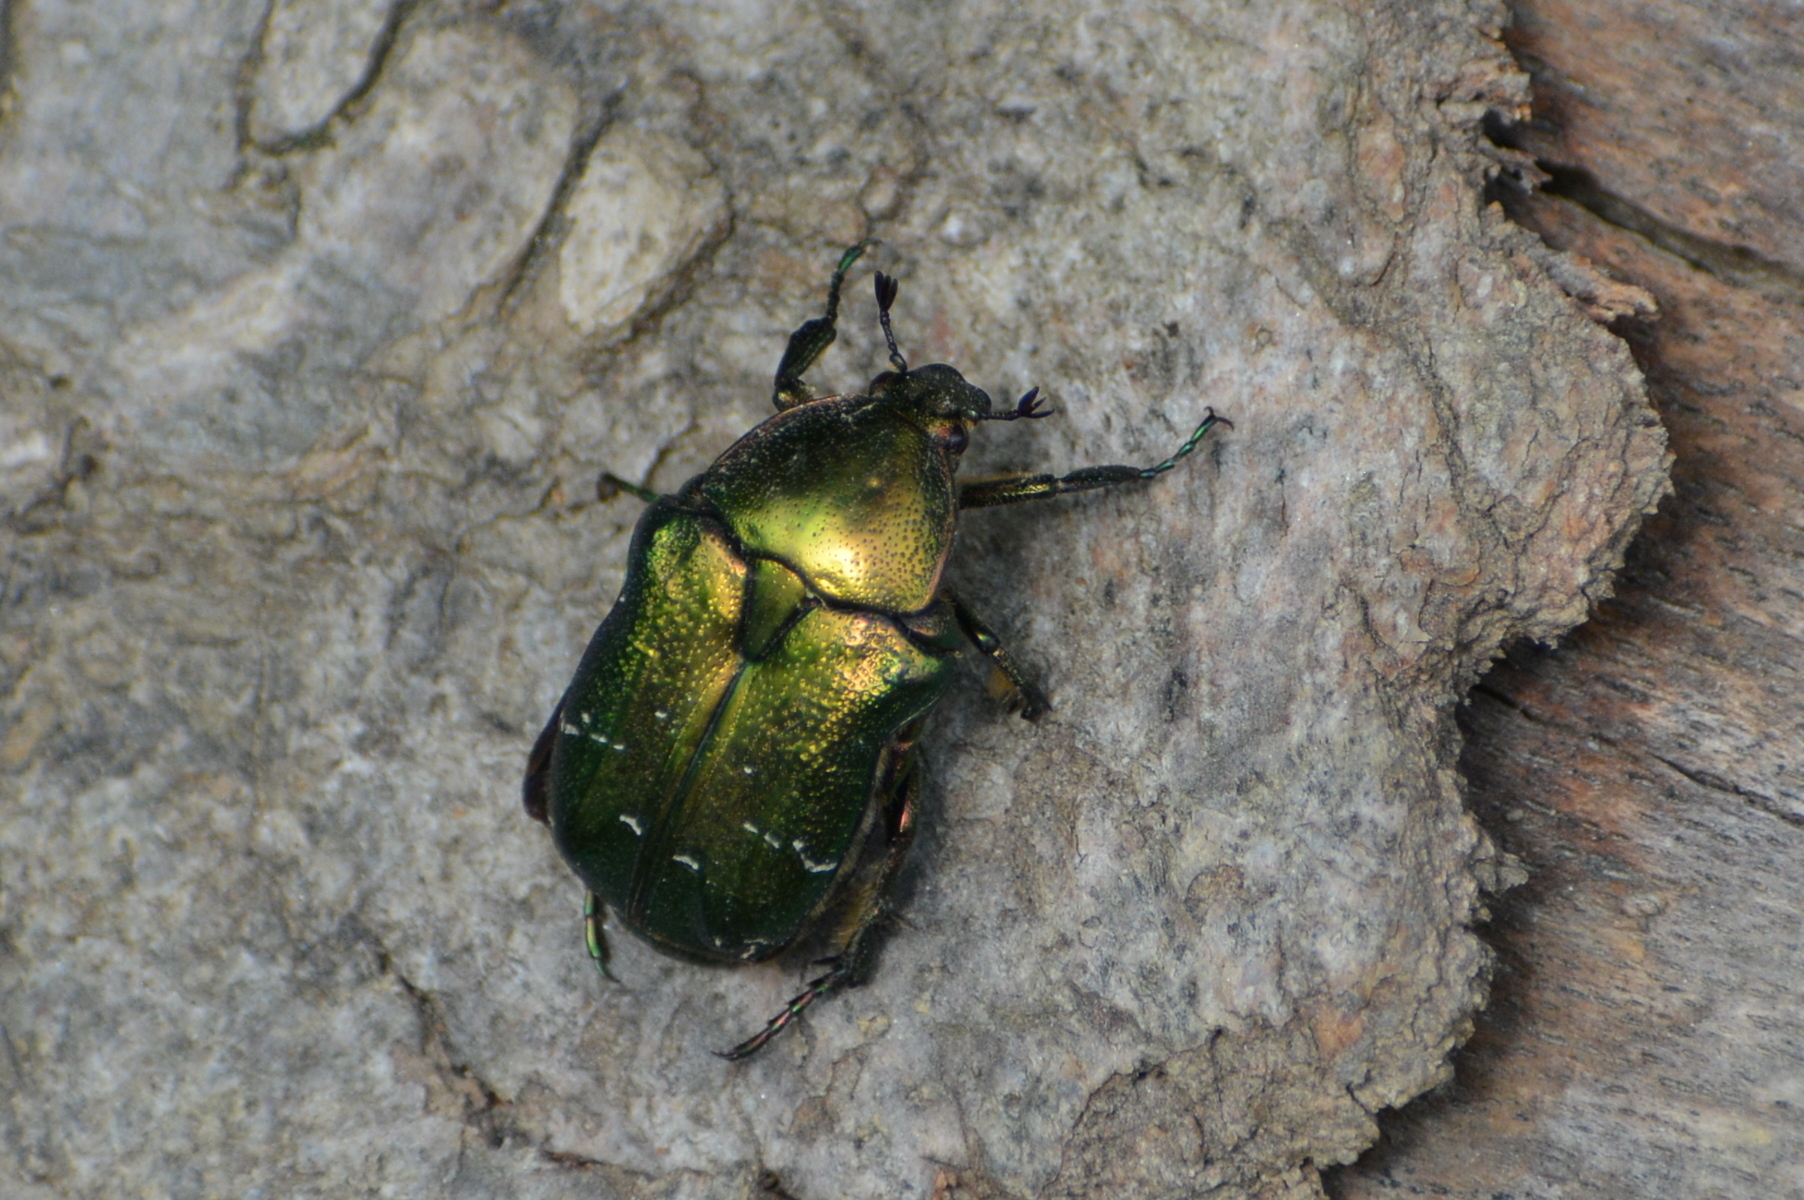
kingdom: Animalia
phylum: Arthropoda
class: Insecta
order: Coleoptera
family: Scarabaeidae
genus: Cetonia
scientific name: Cetonia aurata
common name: Rose chafer
